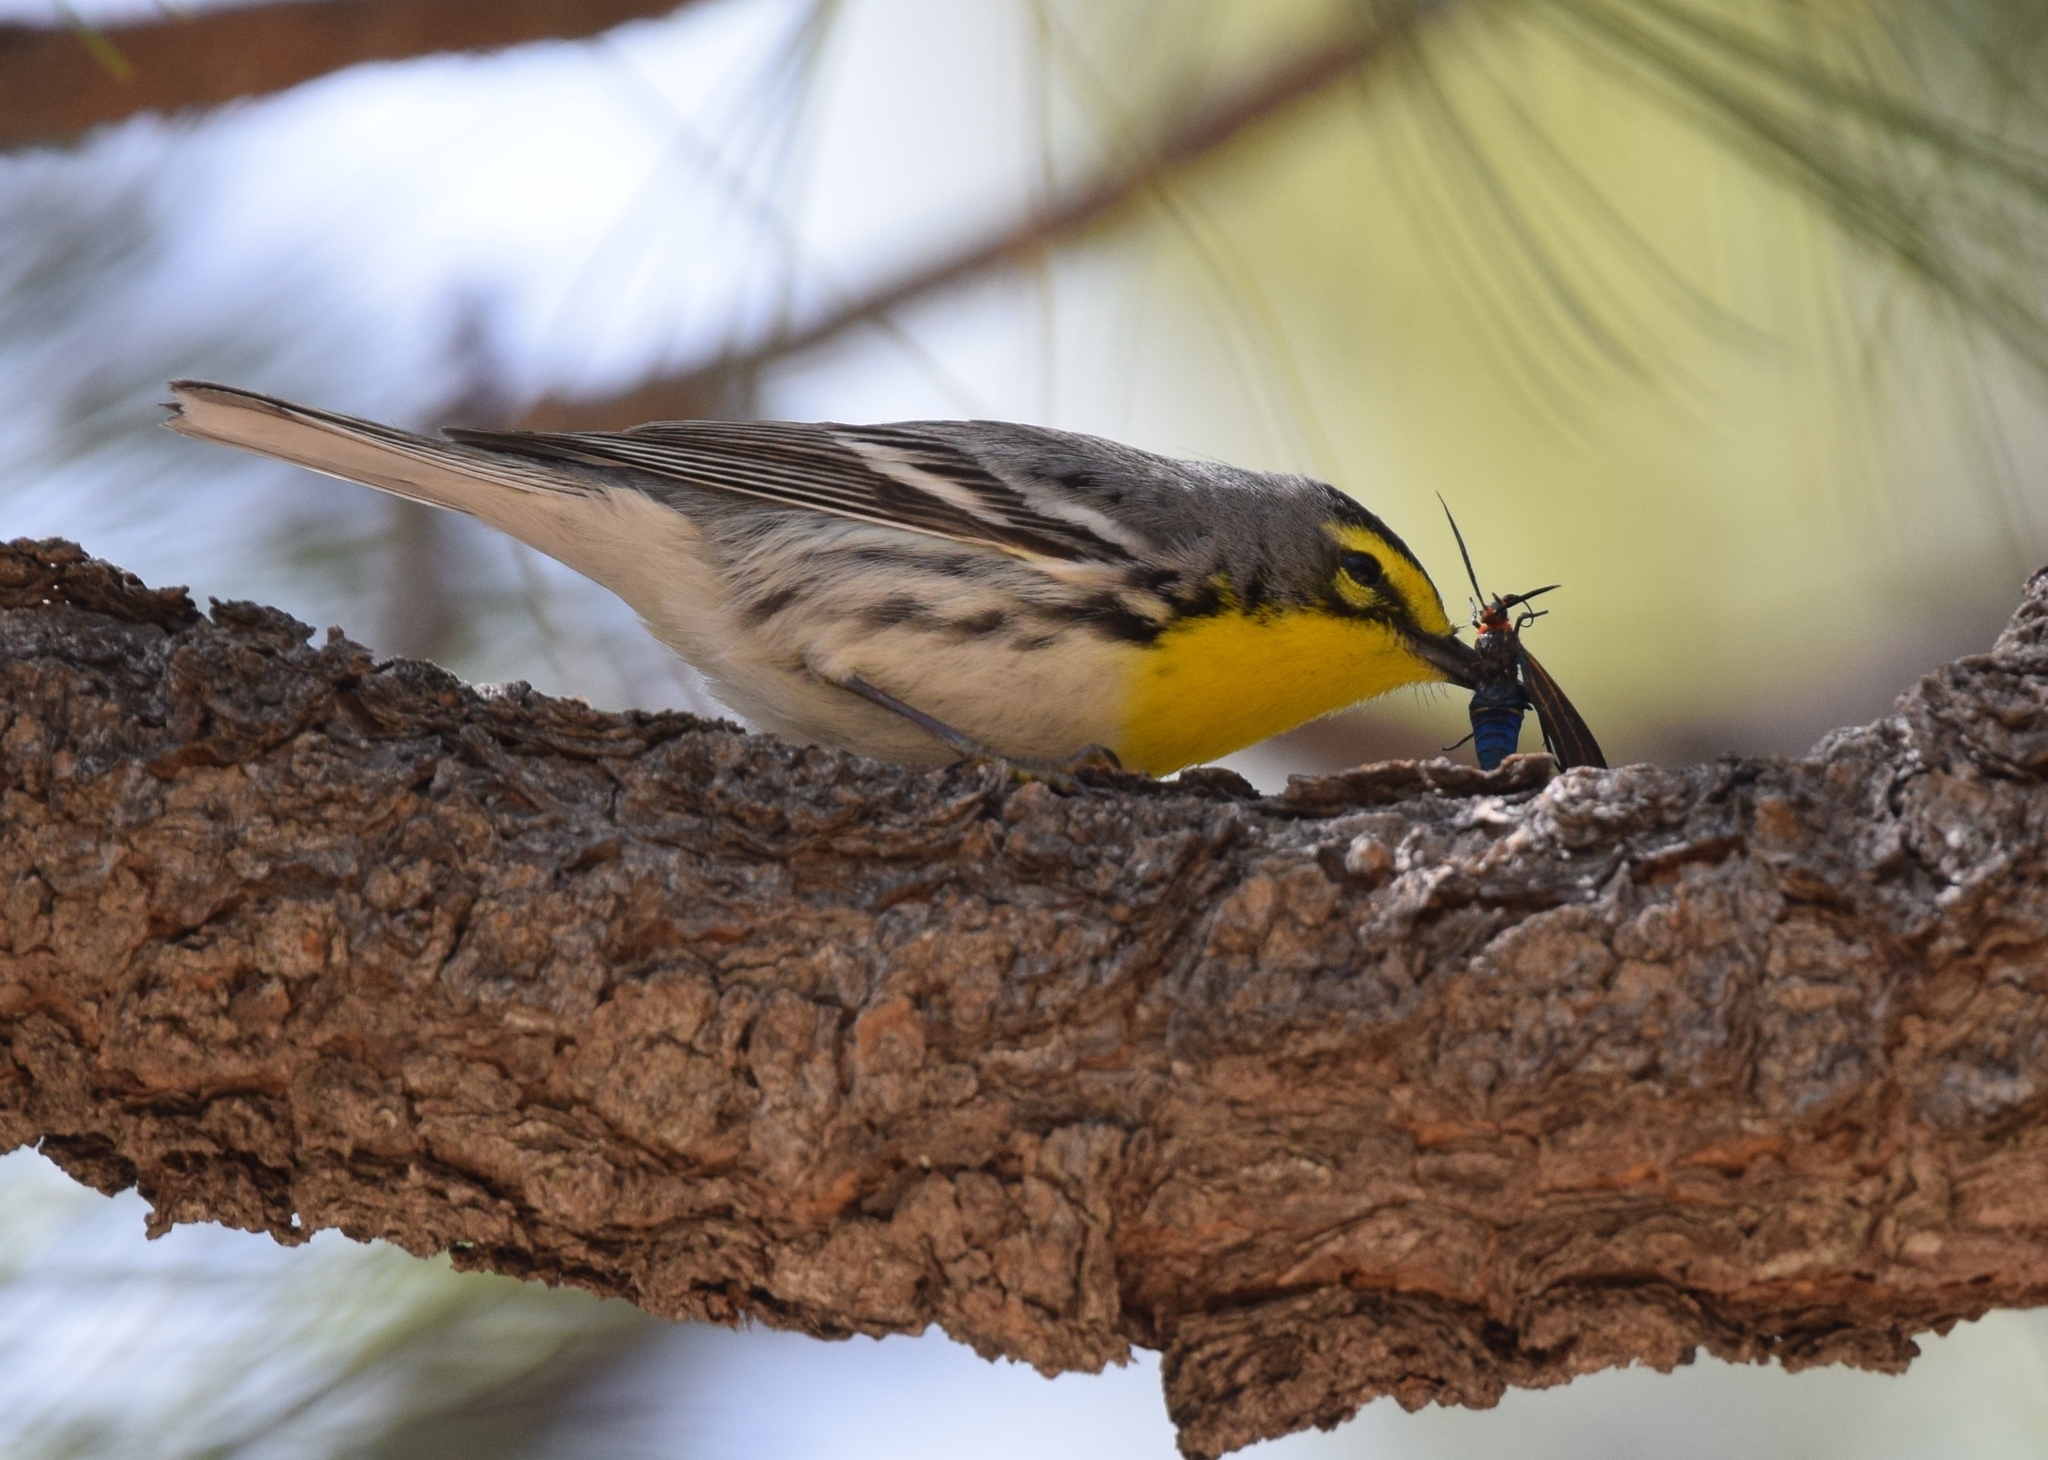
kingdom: Animalia
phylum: Chordata
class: Aves
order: Passeriformes
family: Parulidae
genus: Setophaga
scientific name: Setophaga graciae
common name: Grace's warbler
